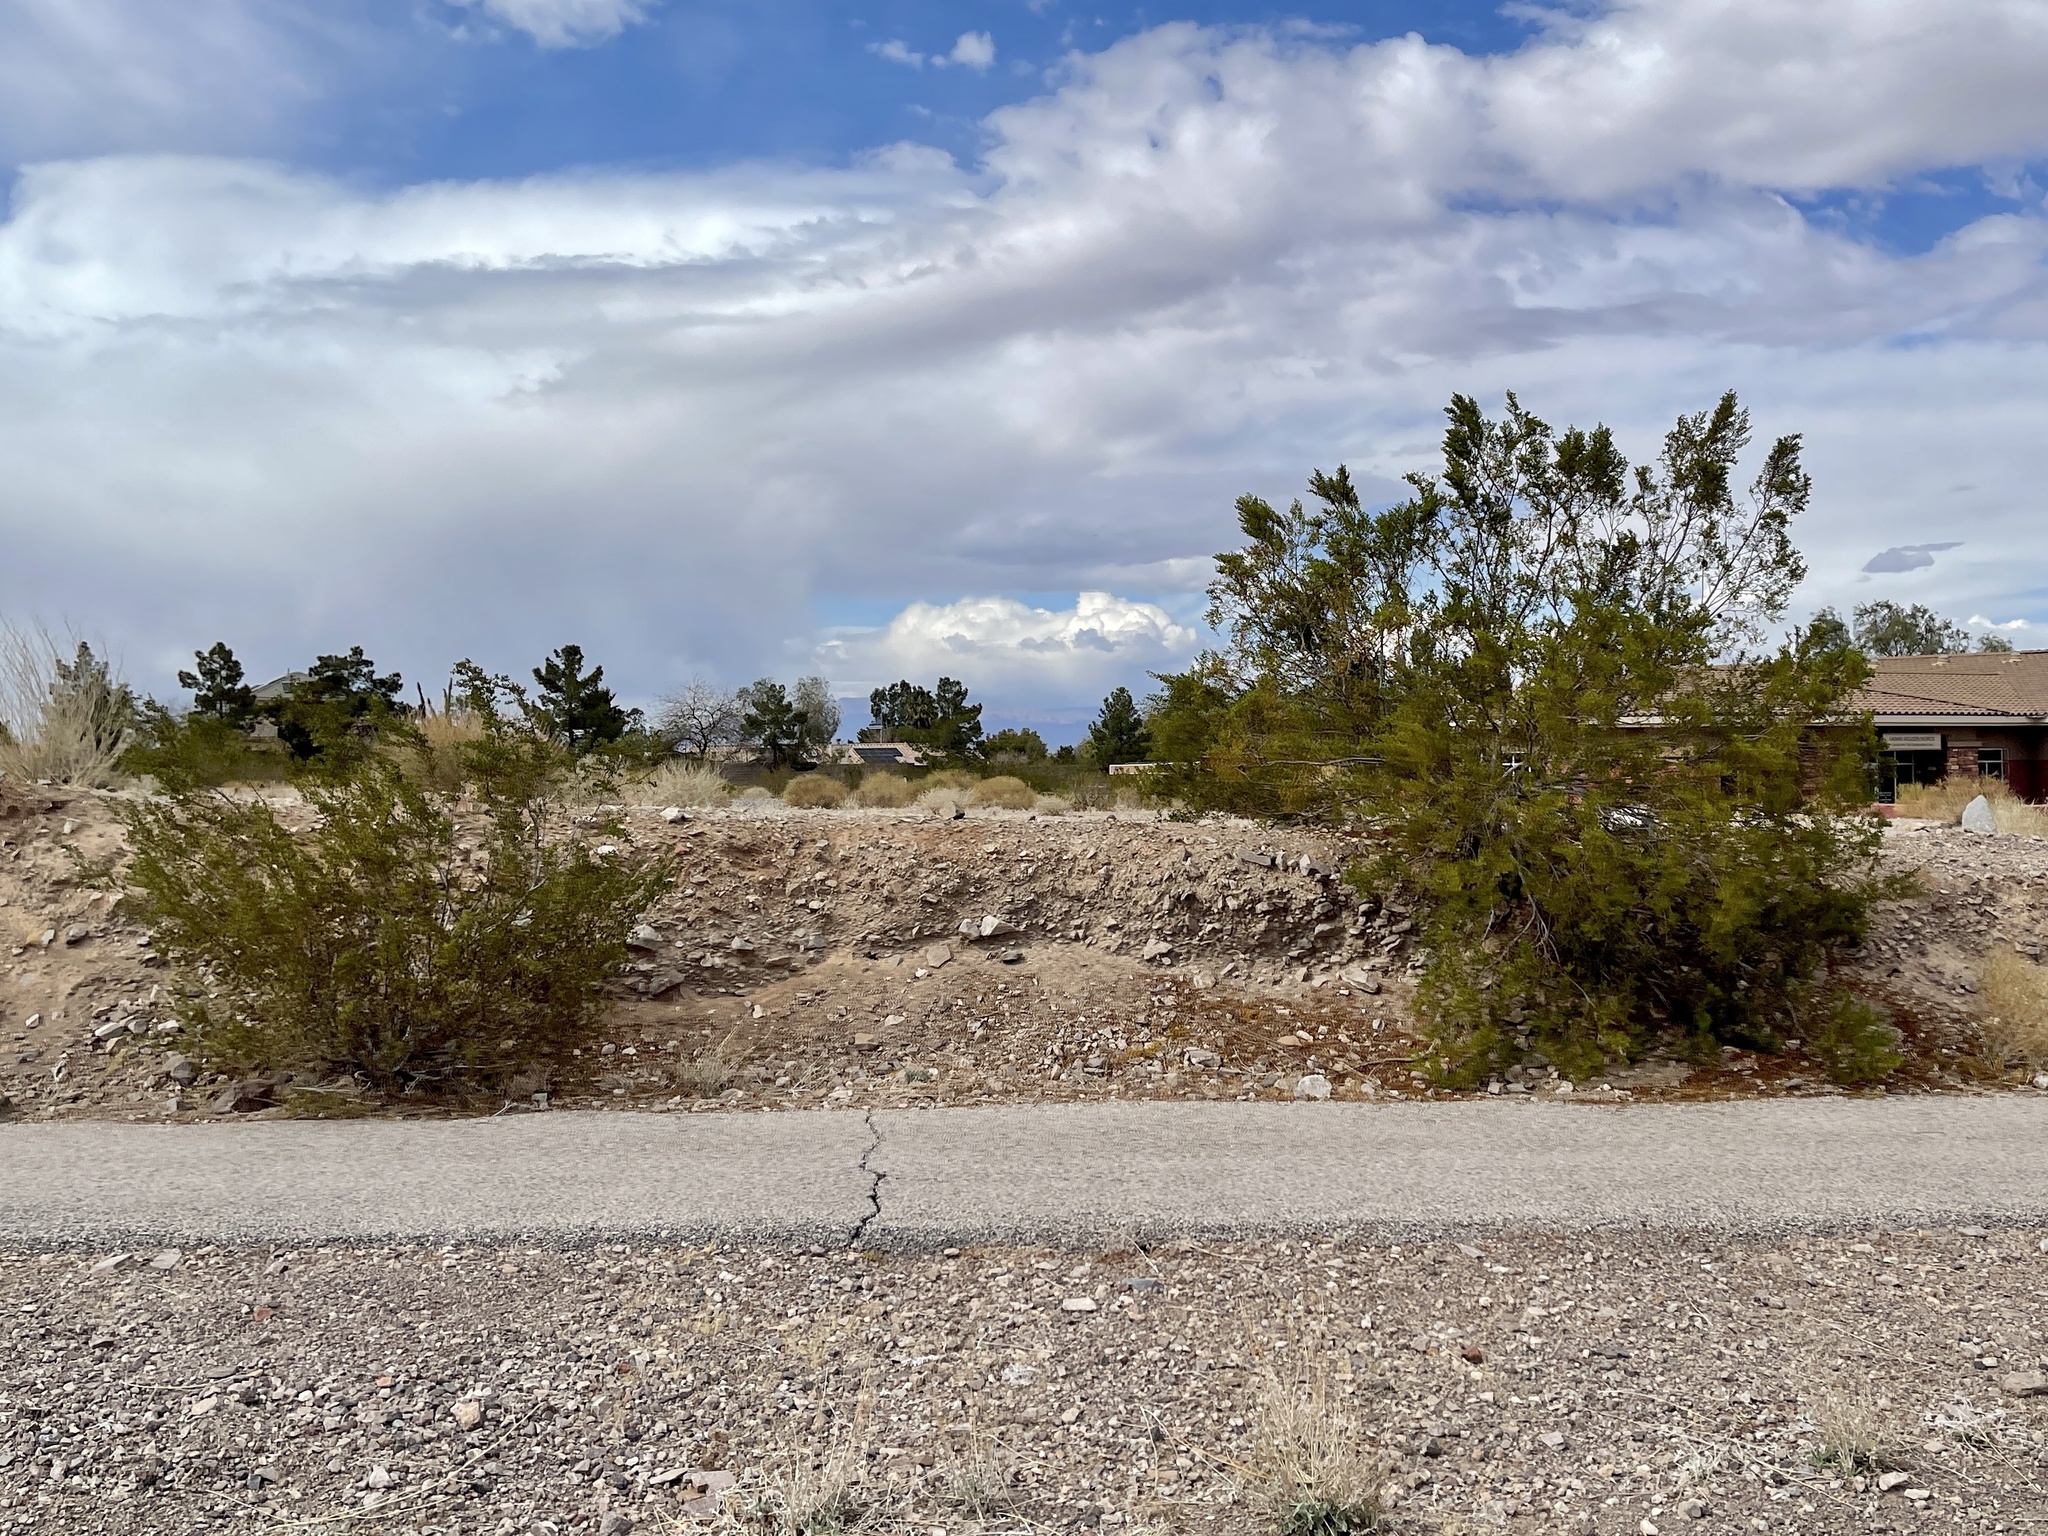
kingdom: Plantae
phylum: Tracheophyta
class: Magnoliopsida
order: Zygophyllales
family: Zygophyllaceae
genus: Larrea
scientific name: Larrea tridentata
